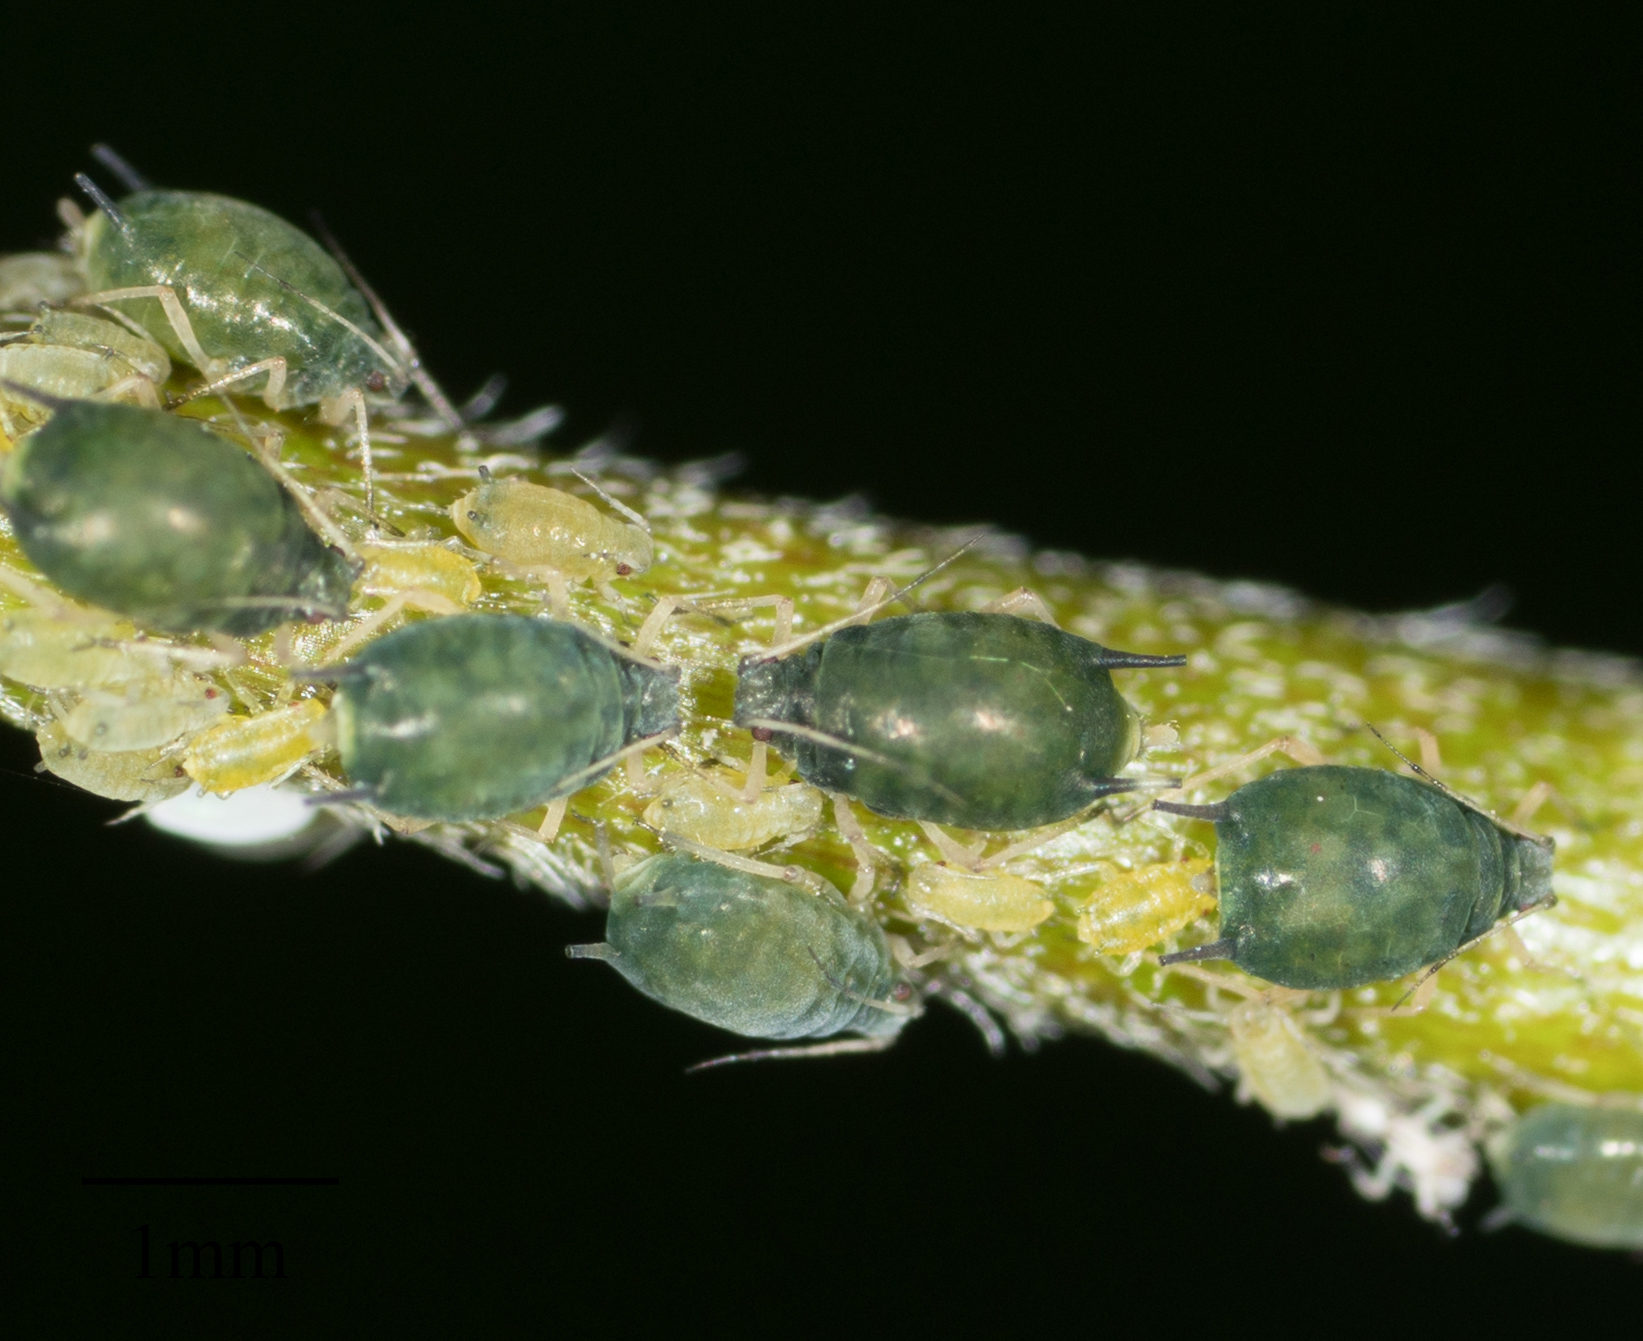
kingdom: Animalia
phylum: Arthropoda
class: Insecta
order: Hemiptera
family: Aphididae
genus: Aphis
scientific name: Aphis gossypii
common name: Melon aphid
